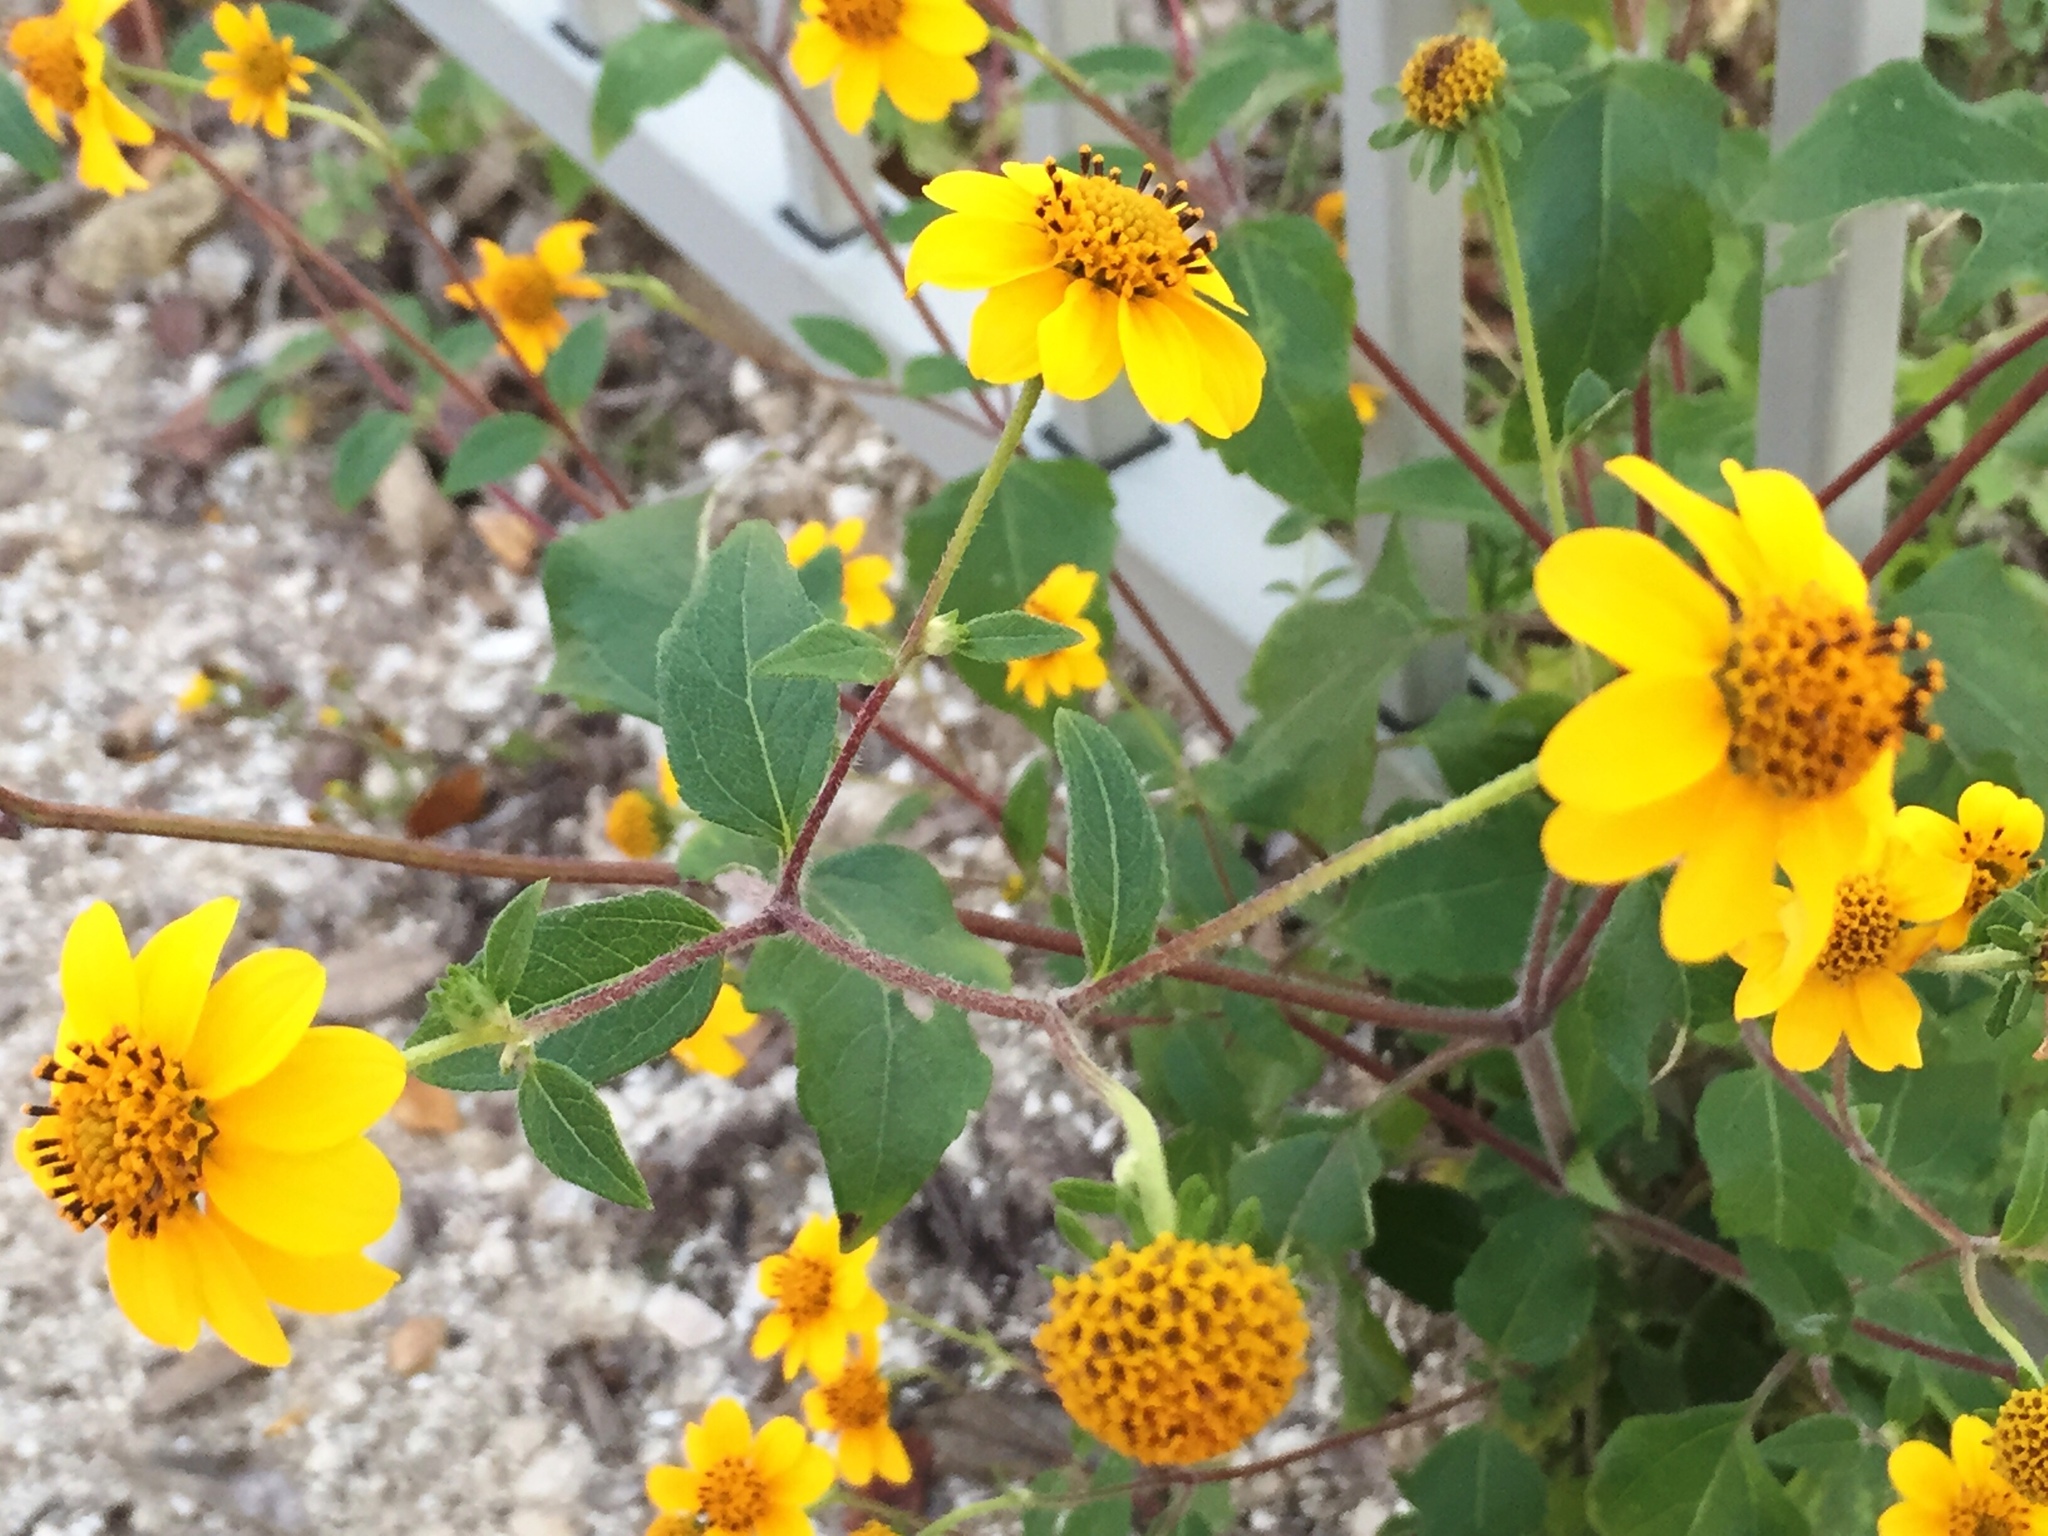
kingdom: Plantae
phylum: Tracheophyta
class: Magnoliopsida
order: Asterales
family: Asteraceae
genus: Viguiera
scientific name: Viguiera dentata
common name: Toothleaf
